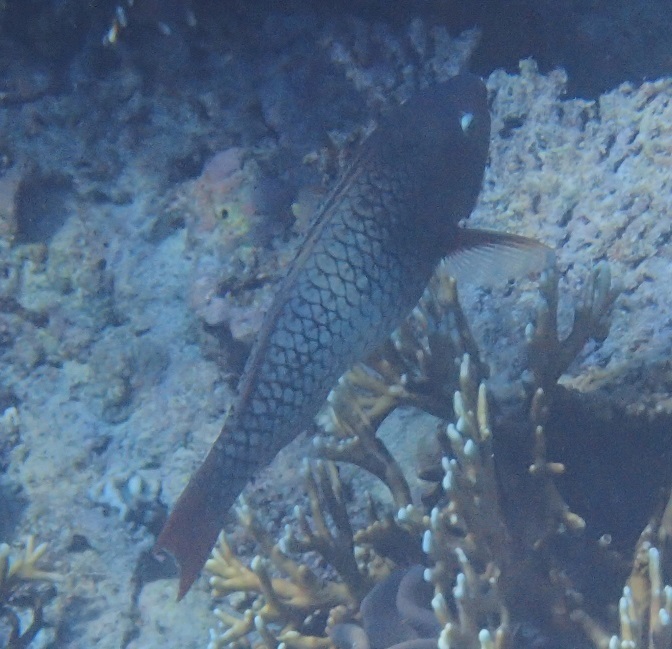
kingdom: Animalia
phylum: Chordata
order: Perciformes
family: Scaridae
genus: Scarus
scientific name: Scarus rubroviolaceus
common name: Ember parrotfish
